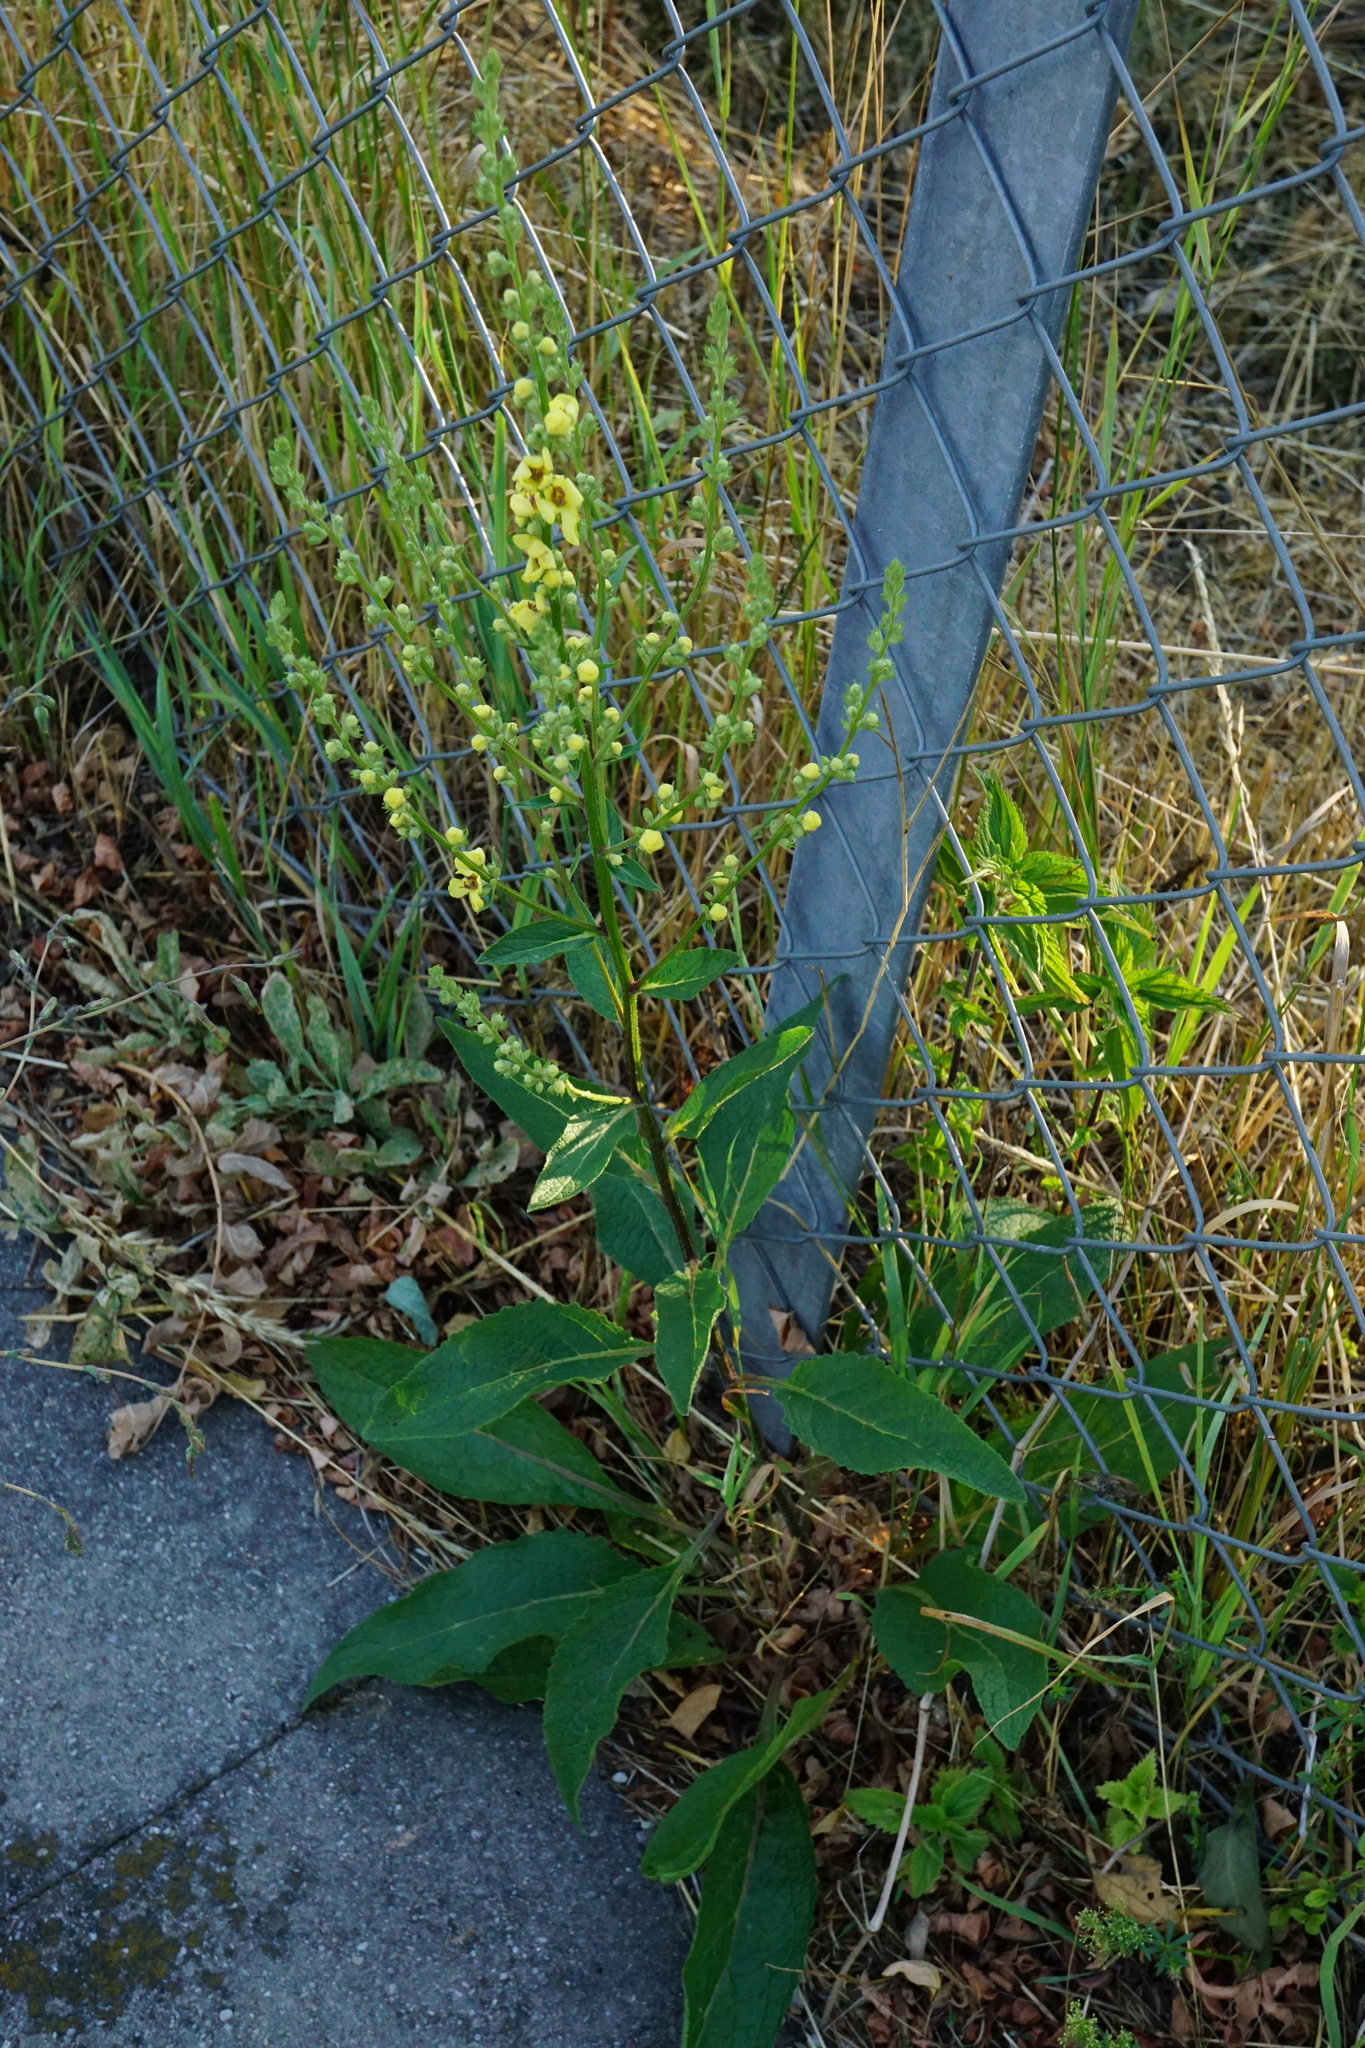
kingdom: Plantae
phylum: Tracheophyta
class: Magnoliopsida
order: Lamiales
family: Scrophulariaceae
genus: Verbascum
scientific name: Verbascum chaixii
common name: Nettle-leaved mullein
